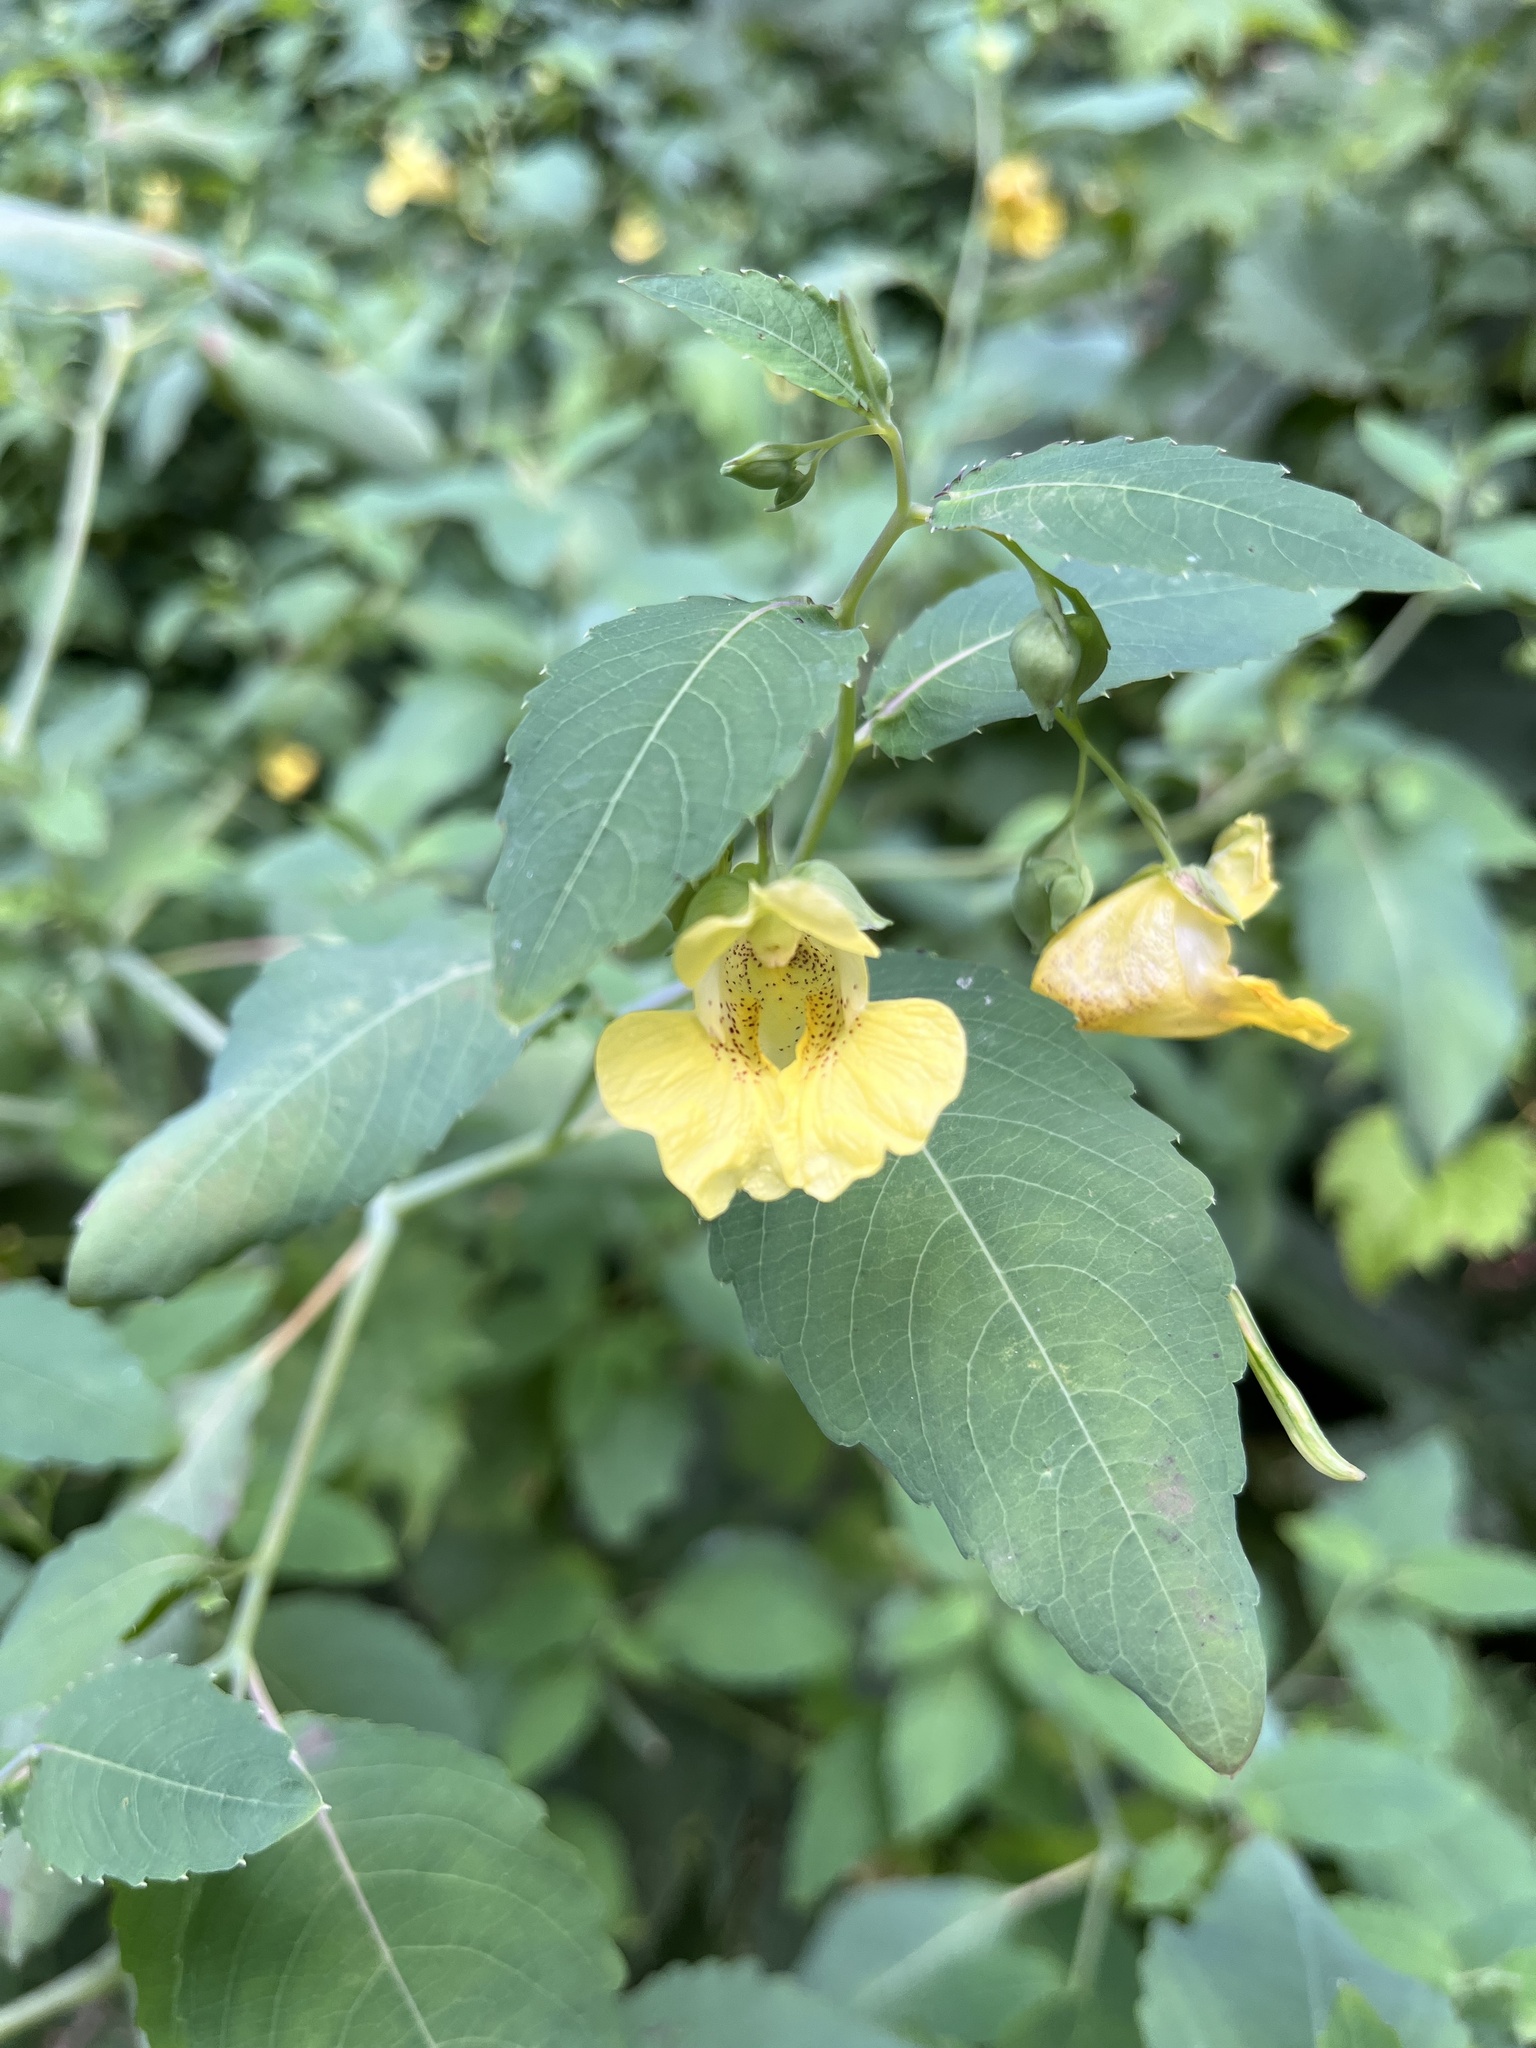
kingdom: Plantae
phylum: Tracheophyta
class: Magnoliopsida
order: Ericales
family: Balsaminaceae
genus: Impatiens
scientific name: Impatiens pallida
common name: Pale snapweed
